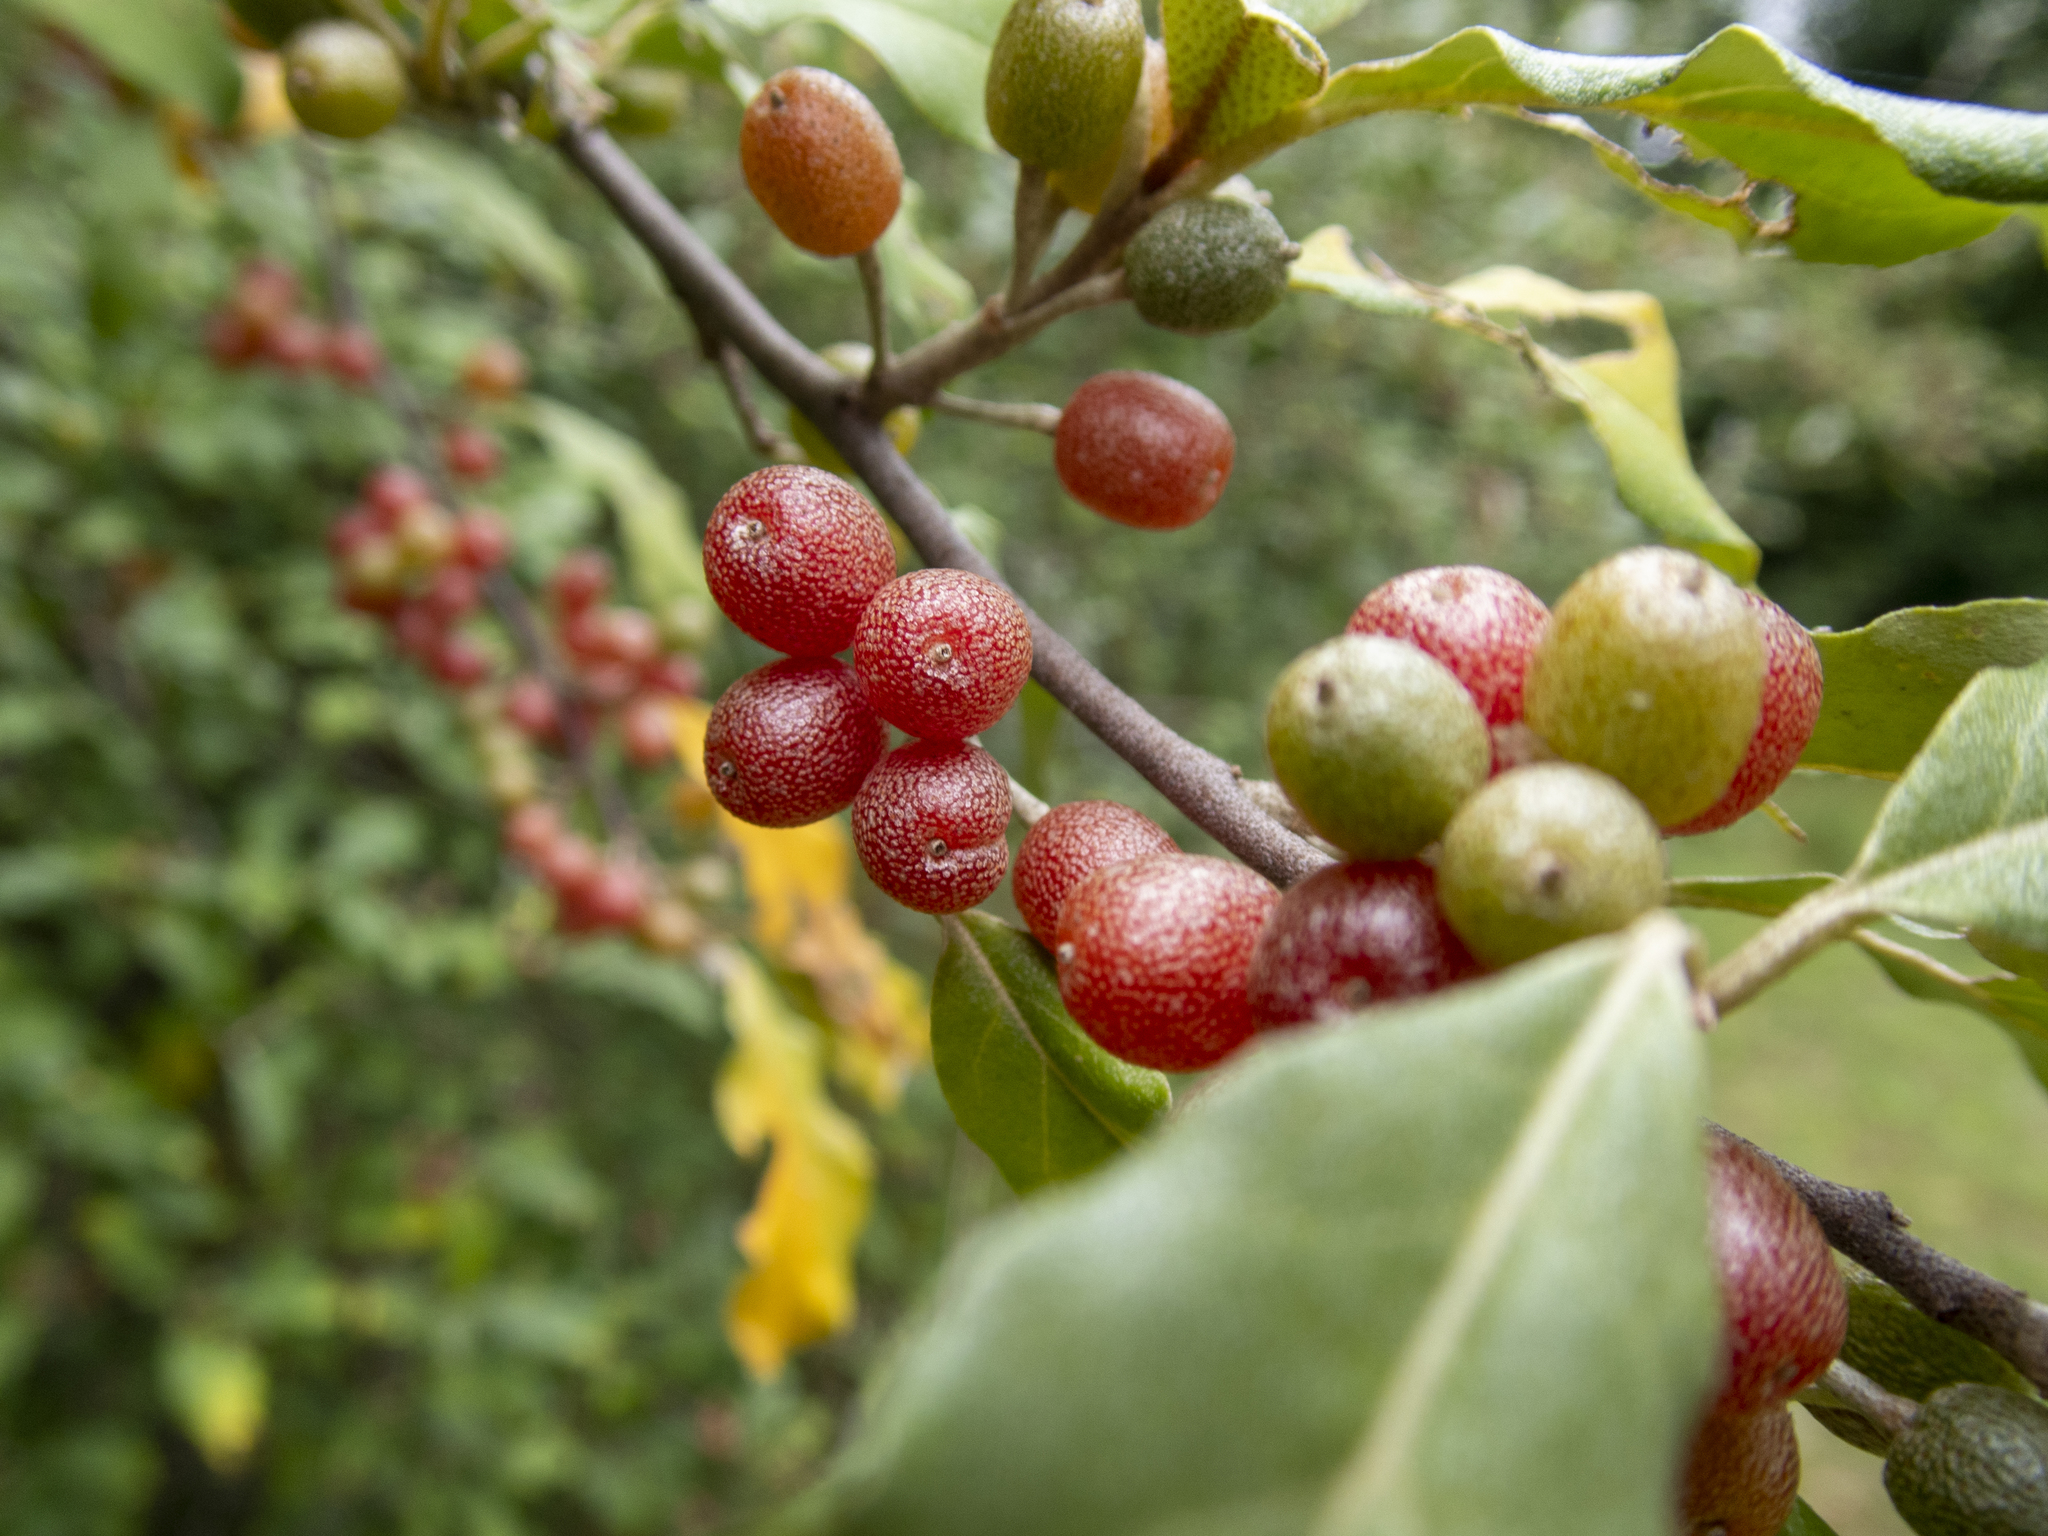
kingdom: Plantae
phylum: Tracheophyta
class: Magnoliopsida
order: Rosales
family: Elaeagnaceae
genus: Elaeagnus
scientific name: Elaeagnus umbellata
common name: Autumn olive
